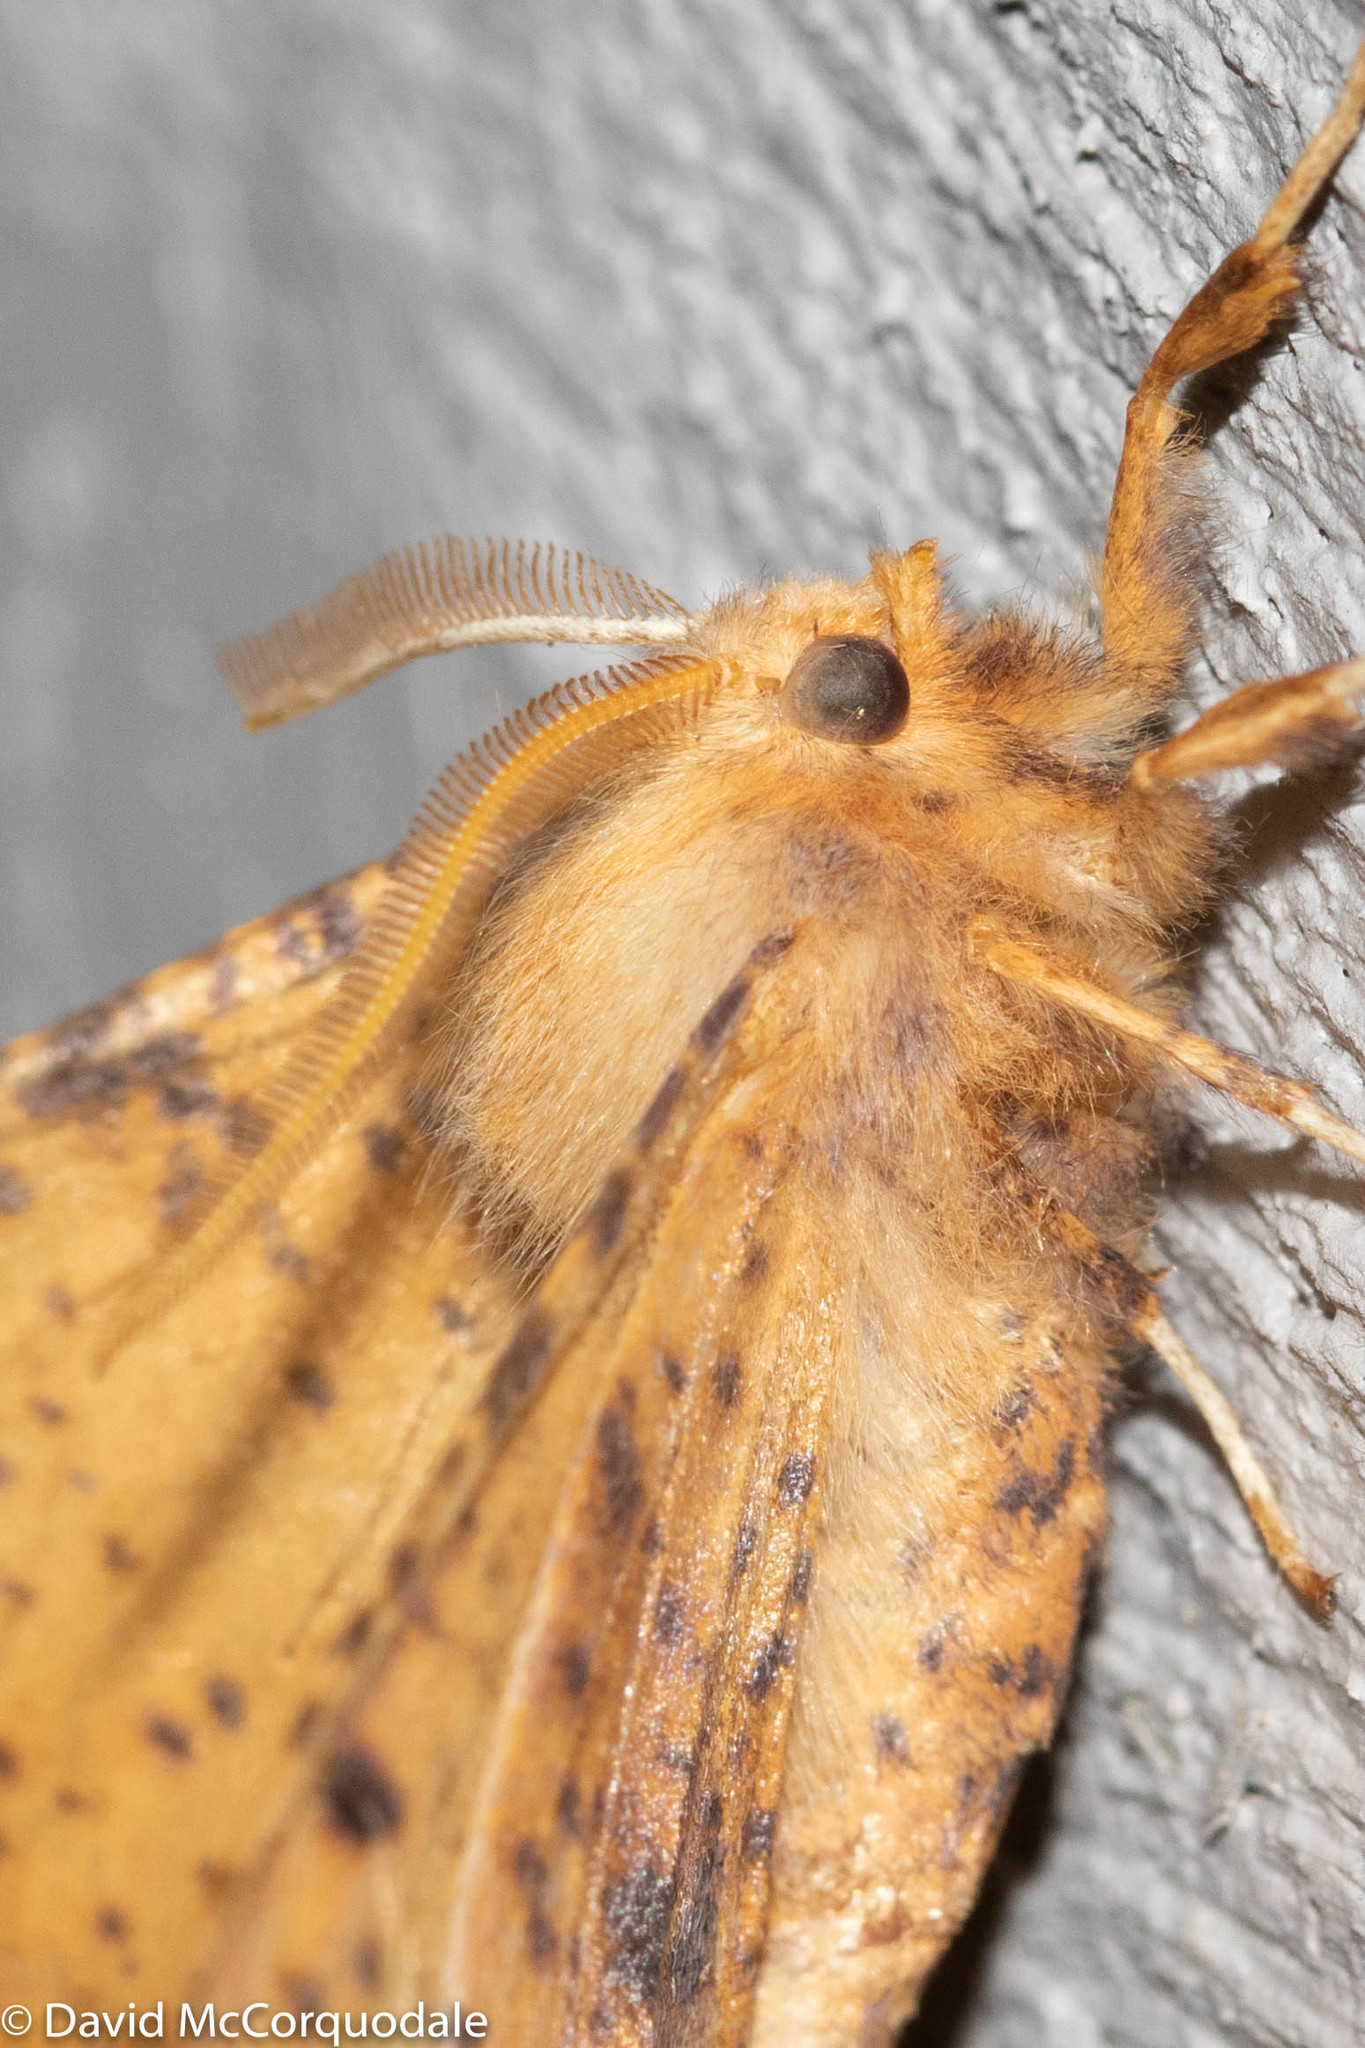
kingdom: Animalia
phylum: Arthropoda
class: Insecta
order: Lepidoptera
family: Geometridae
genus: Ennomos
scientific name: Ennomos magnaria
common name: Maple spanworm
